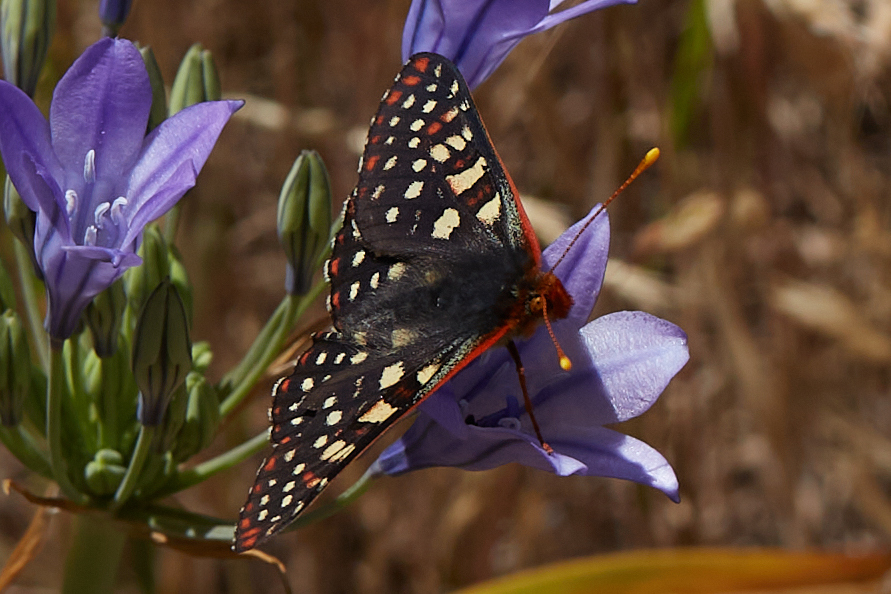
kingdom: Animalia
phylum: Arthropoda
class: Insecta
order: Lepidoptera
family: Nymphalidae
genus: Occidryas
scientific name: Occidryas chalcedona
